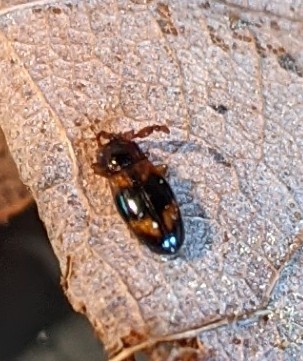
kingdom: Animalia
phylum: Arthropoda
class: Insecta
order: Coleoptera
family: Endomychidae
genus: Phymaphora
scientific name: Phymaphora pulchella
